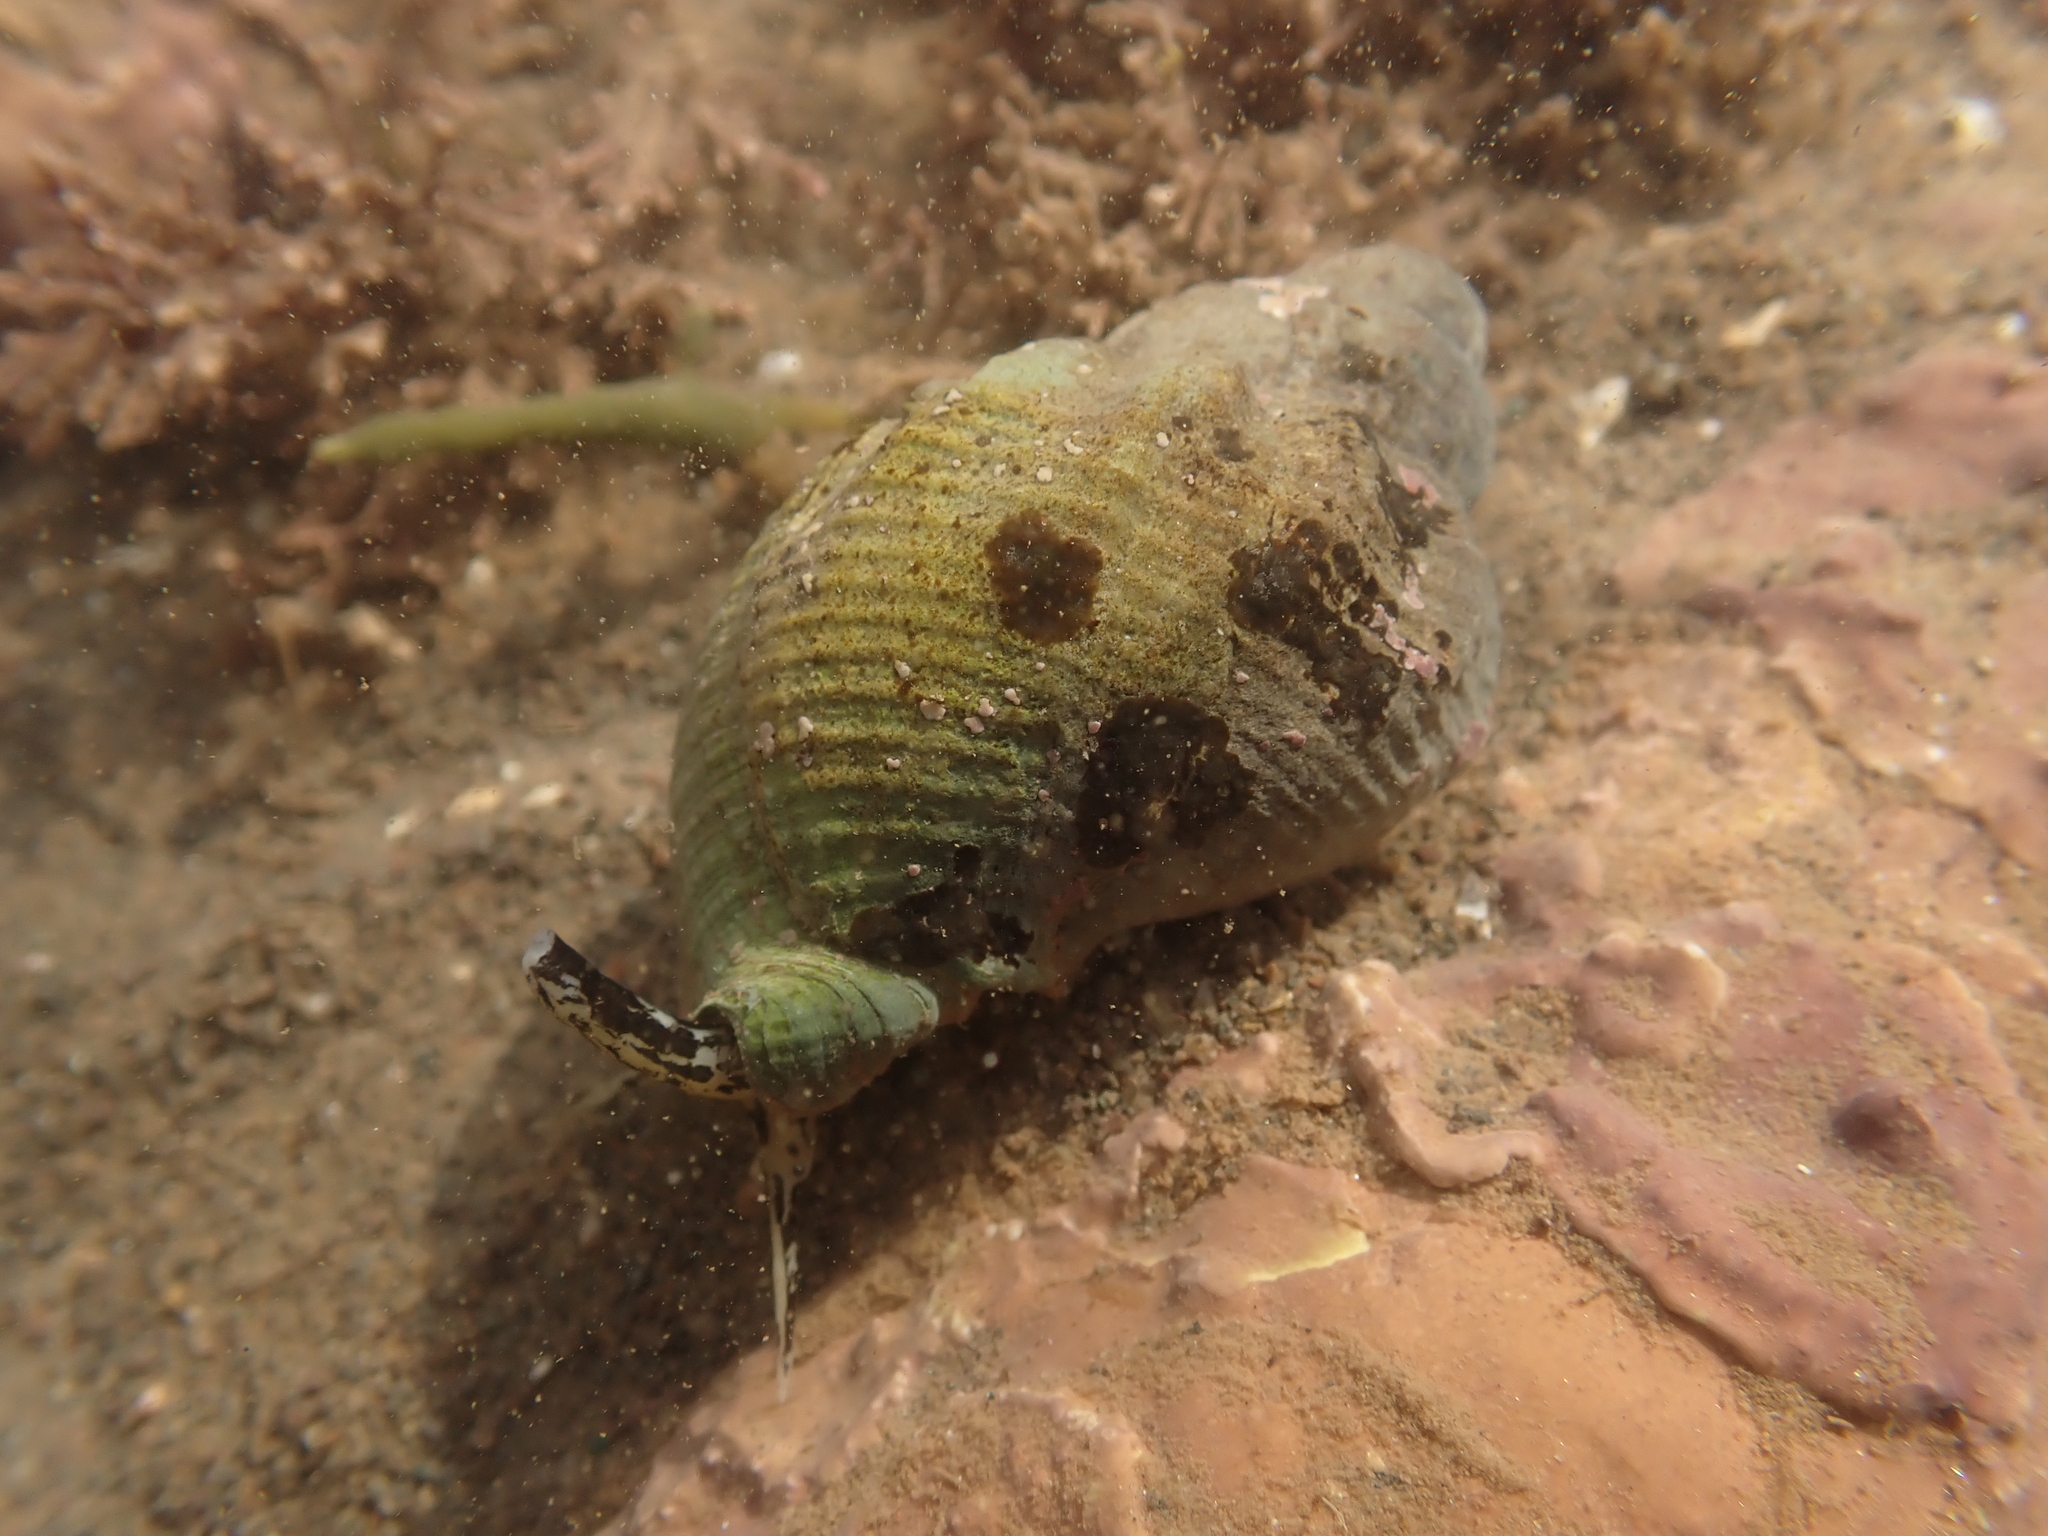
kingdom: Animalia
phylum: Mollusca
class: Gastropoda
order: Neogastropoda
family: Buccinidae
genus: Buccinum
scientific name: Buccinum undatum
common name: Common whelk
